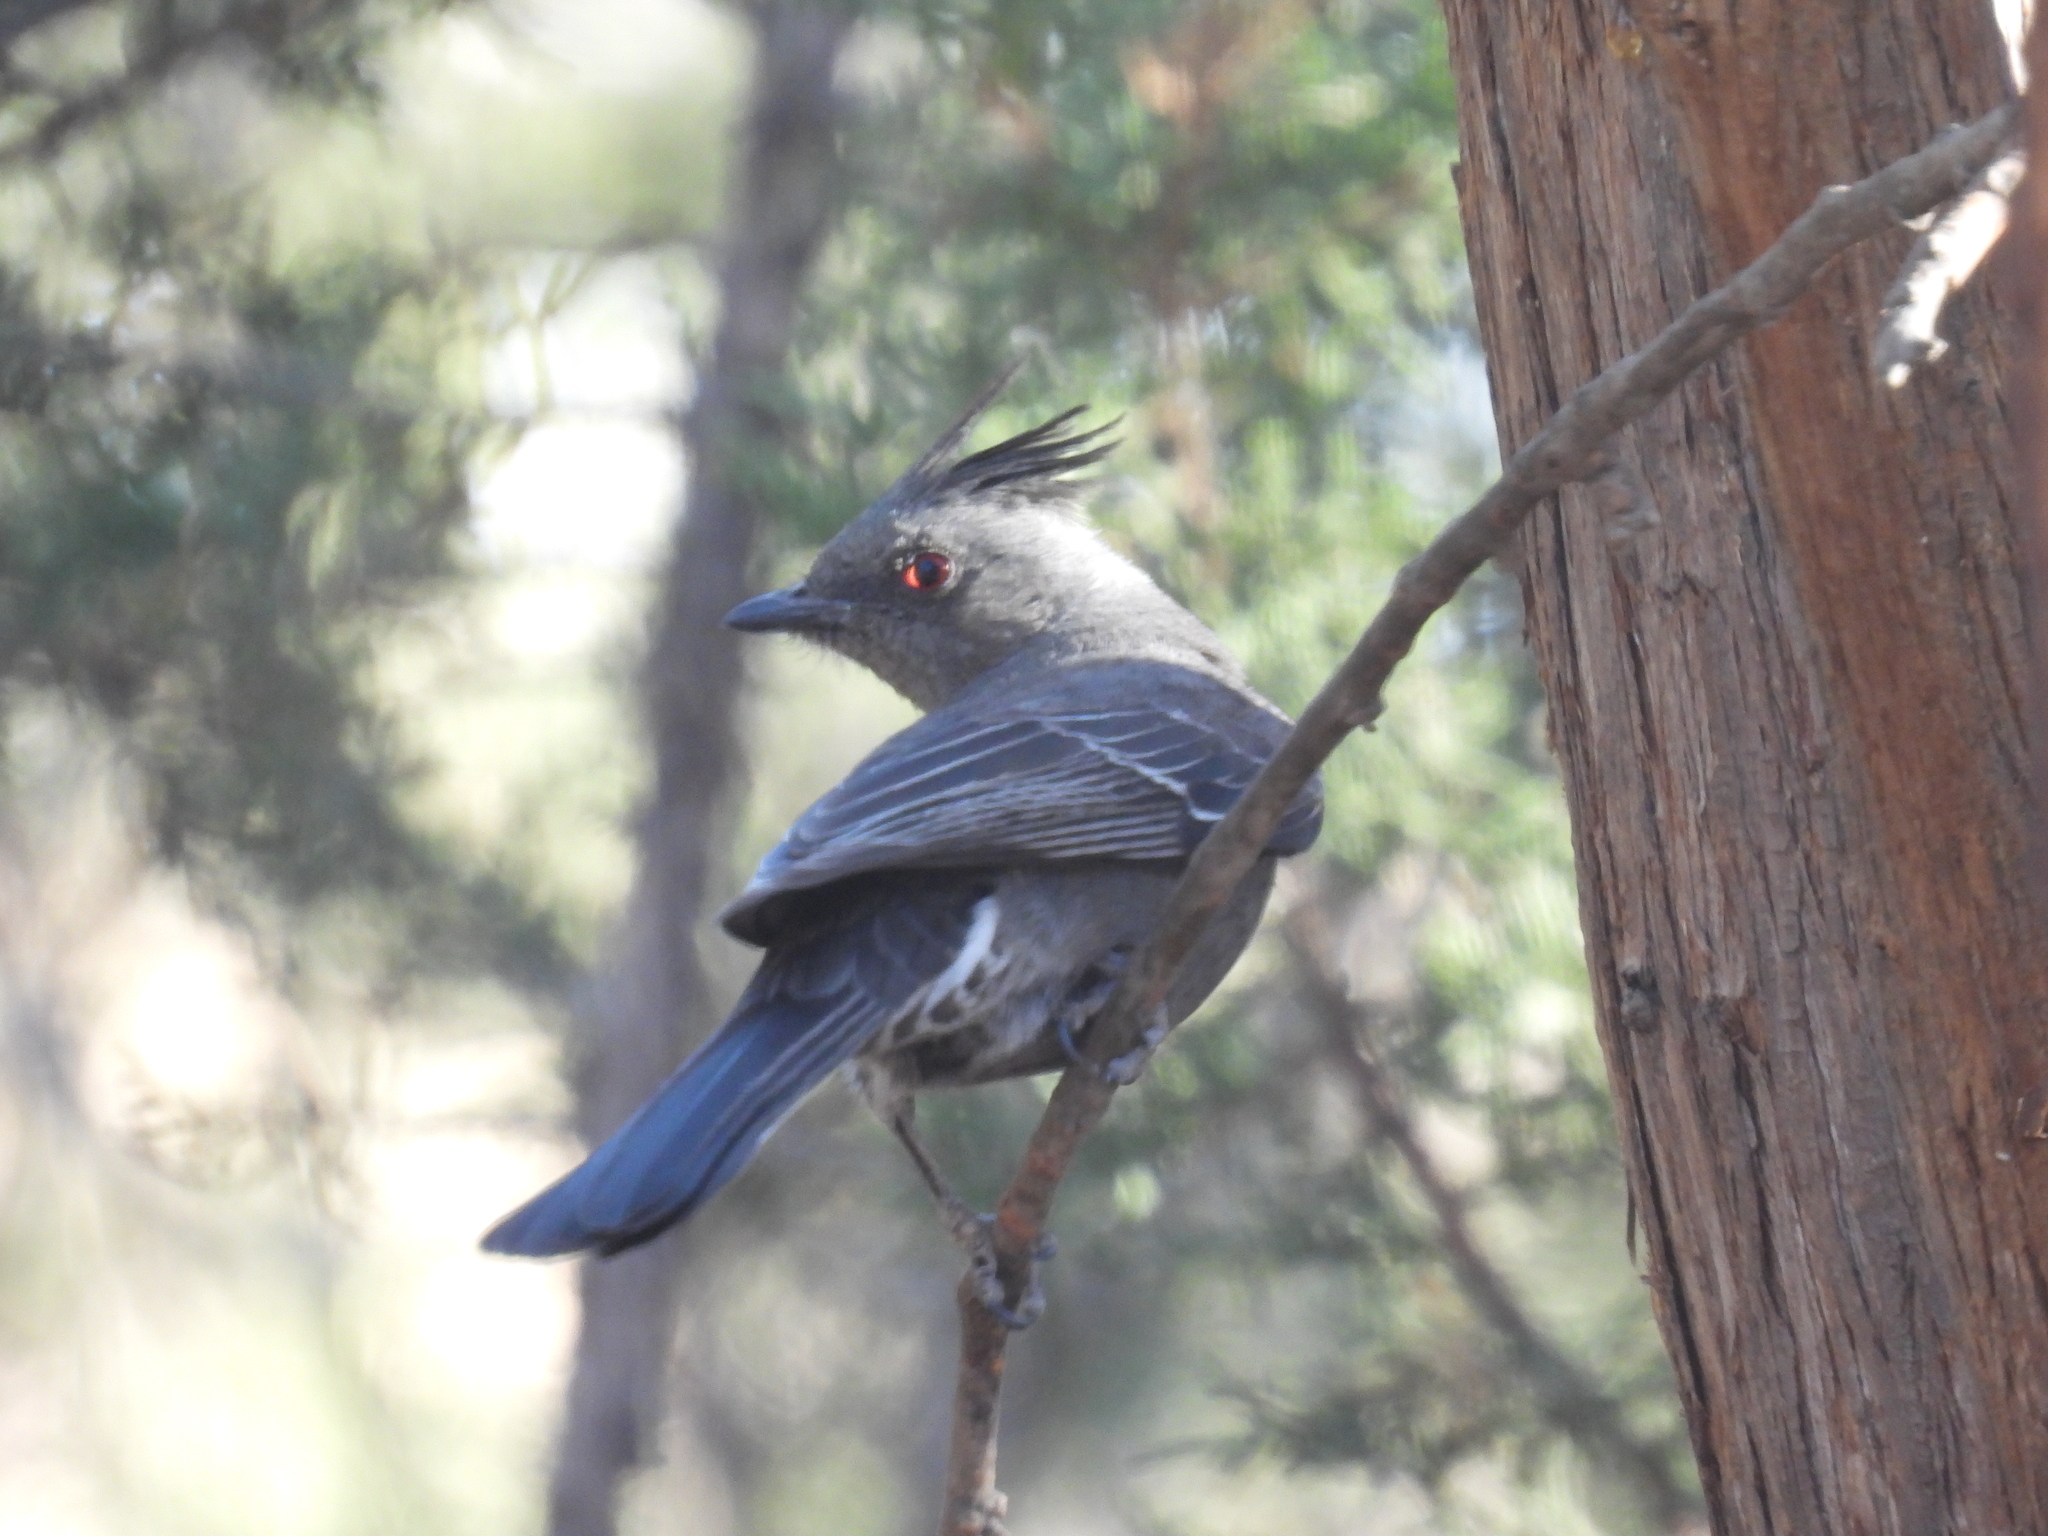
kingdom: Animalia
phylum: Chordata
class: Aves
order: Passeriformes
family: Ptilogonatidae
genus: Phainopepla
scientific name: Phainopepla nitens
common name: Phainopepla
